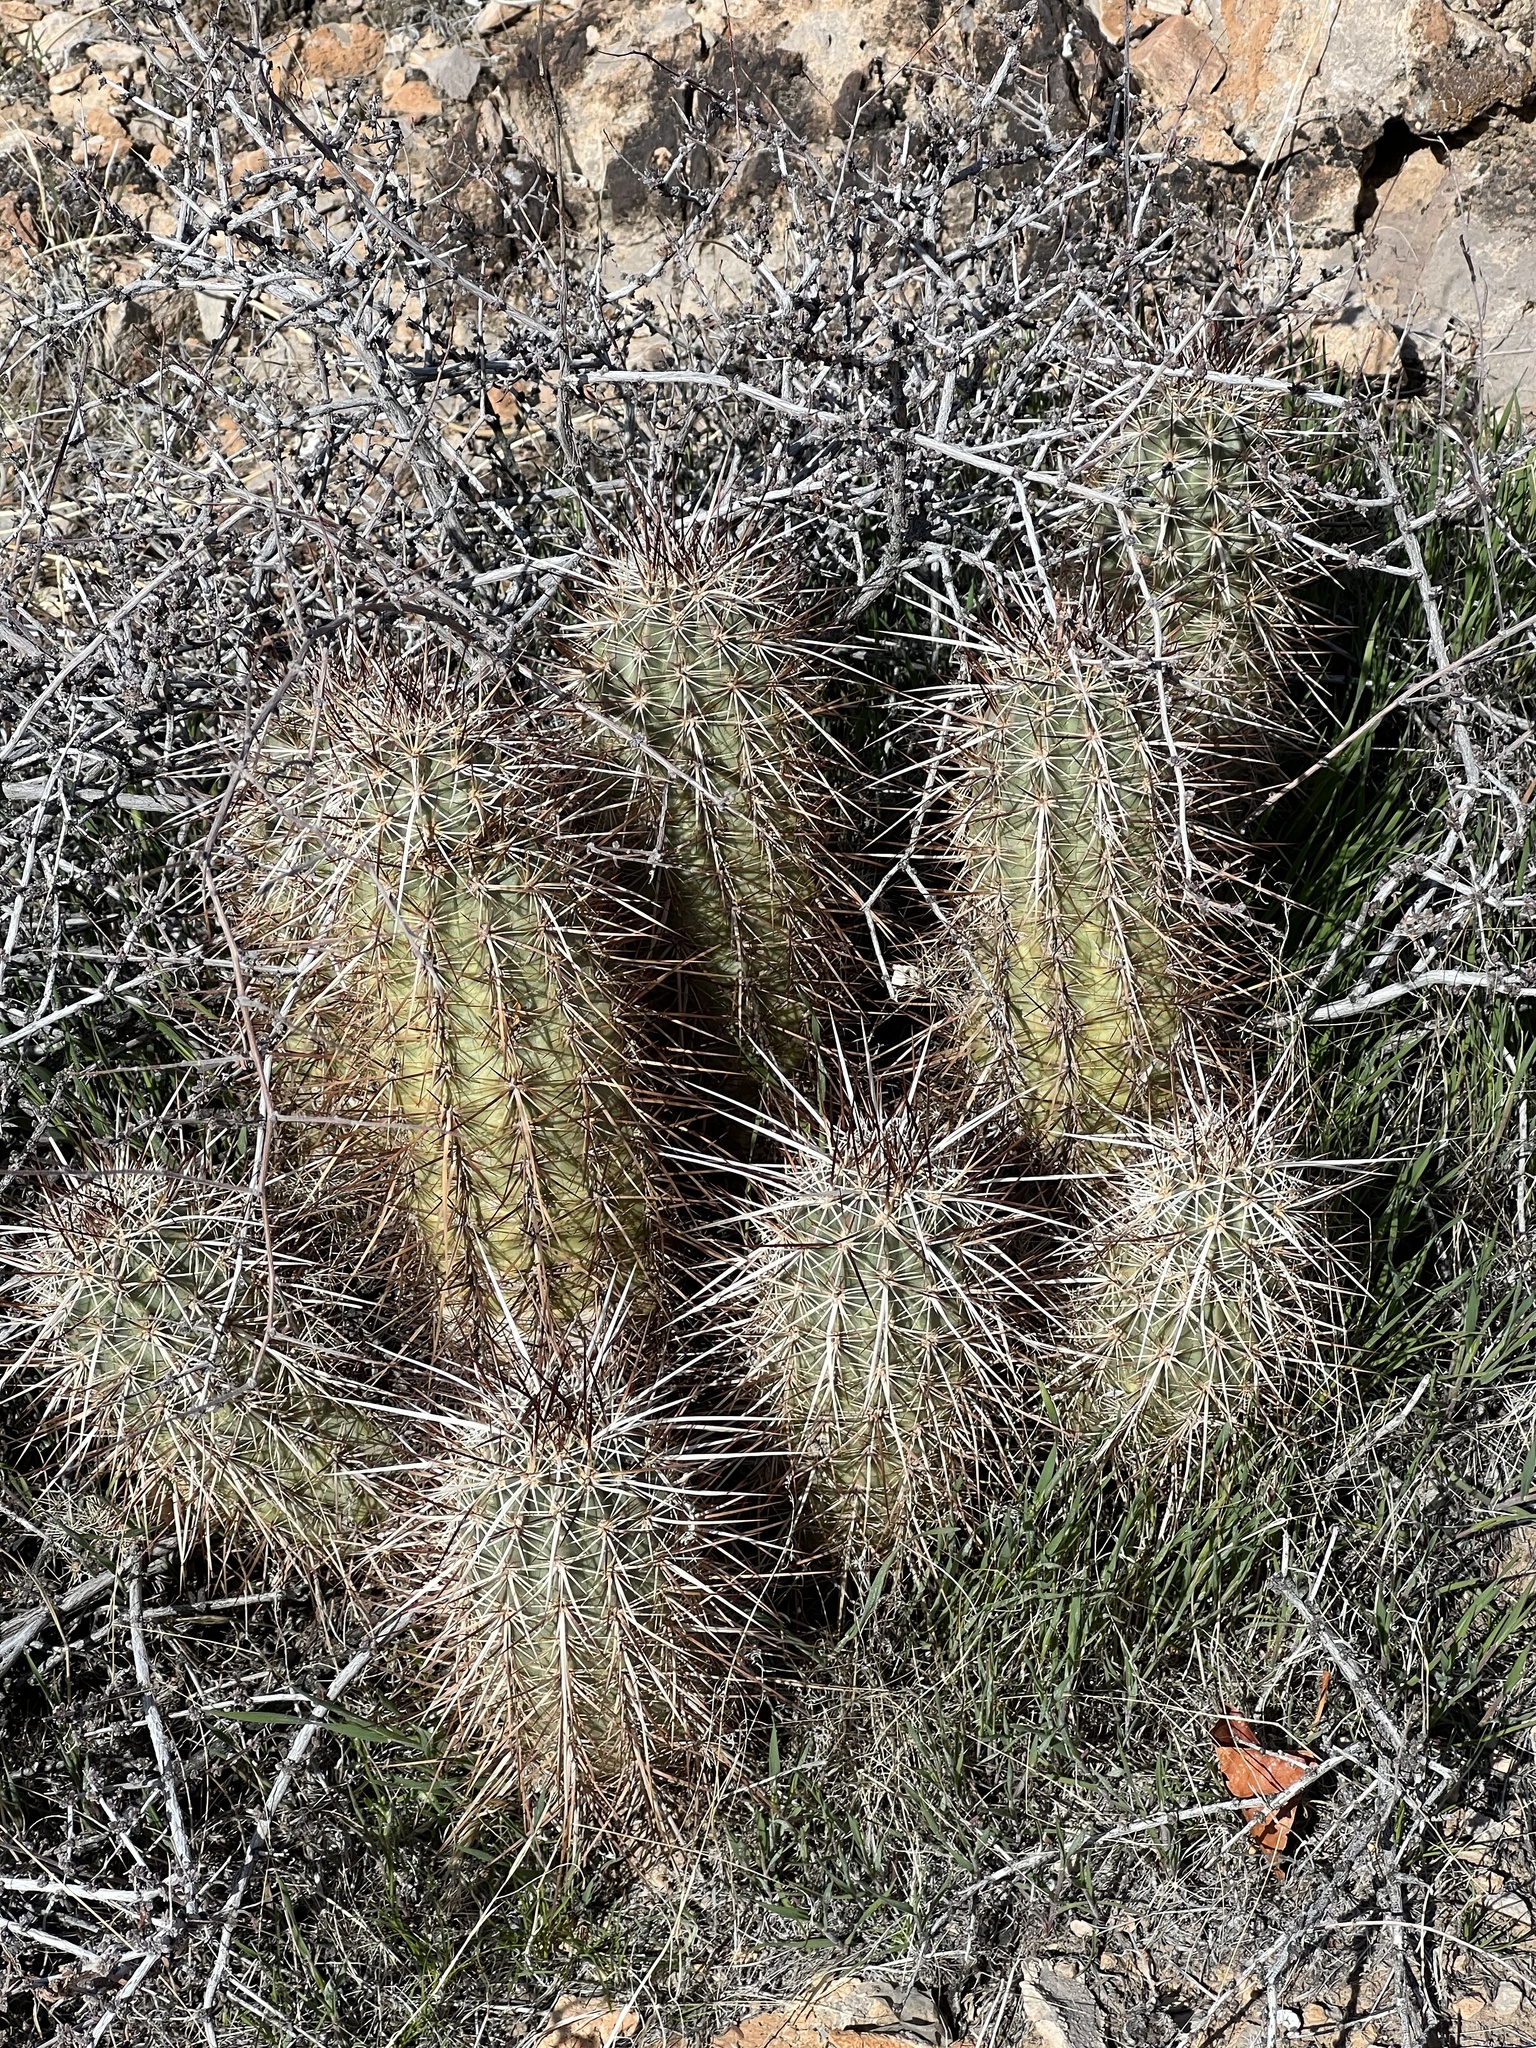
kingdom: Plantae
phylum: Tracheophyta
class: Magnoliopsida
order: Caryophyllales
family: Cactaceae
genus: Echinocereus
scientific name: Echinocereus engelmannii
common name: Engelmann's hedgehog cactus
